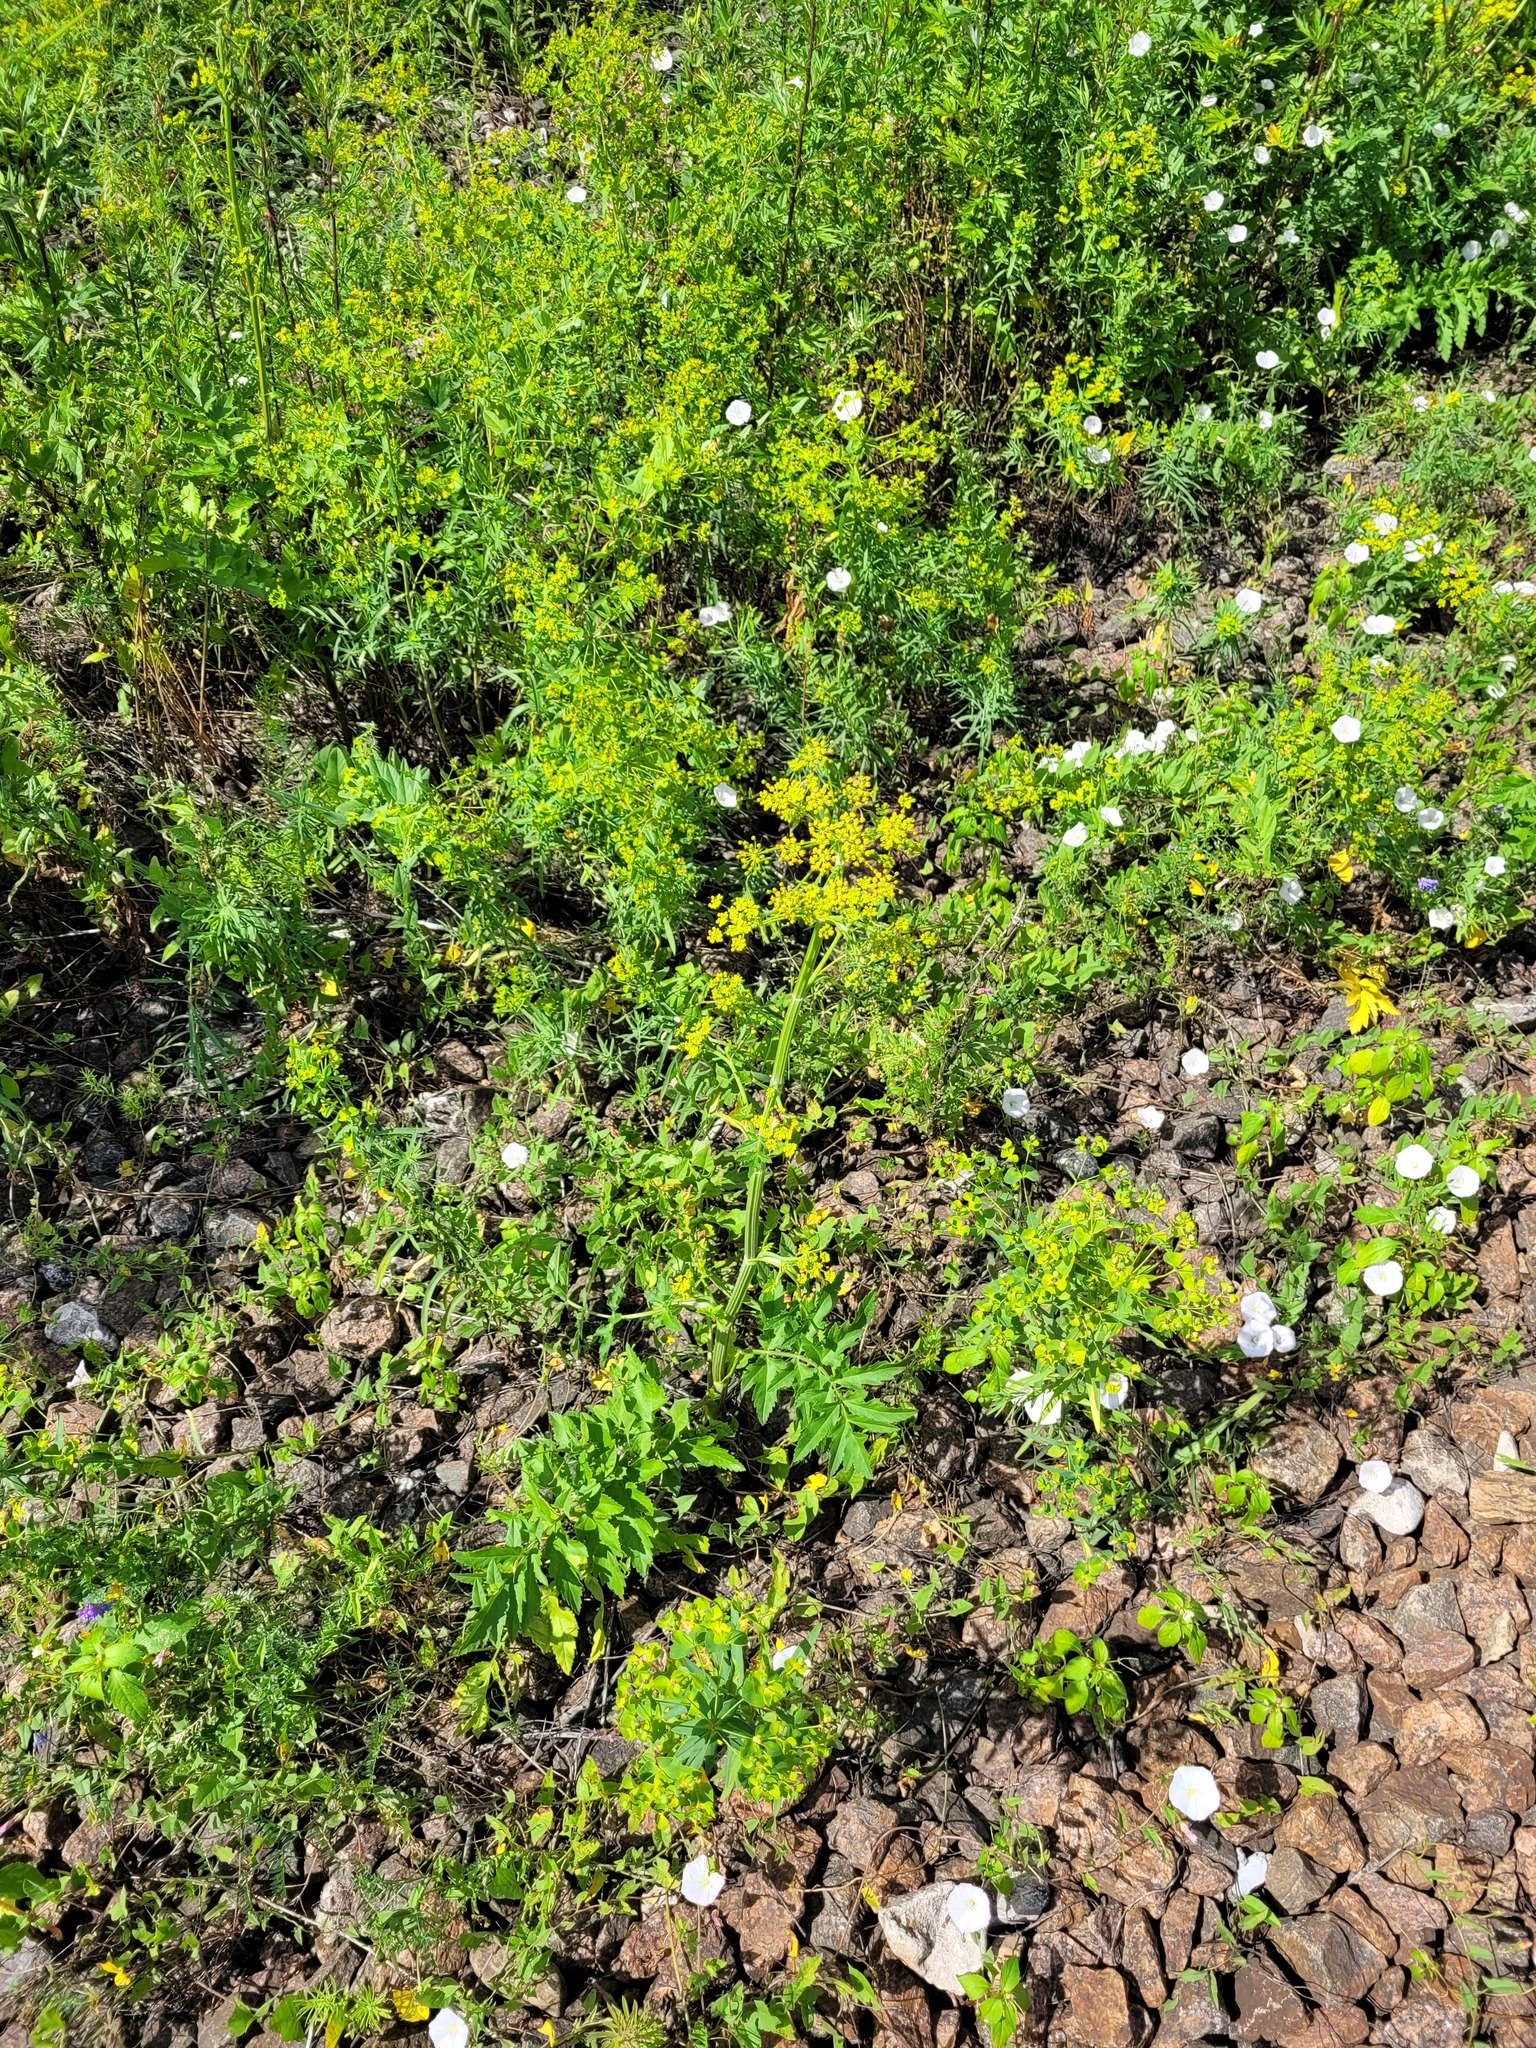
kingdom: Plantae
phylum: Tracheophyta
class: Magnoliopsida
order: Apiales
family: Apiaceae
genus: Pastinaca
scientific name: Pastinaca sativa
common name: Wild parsnip
